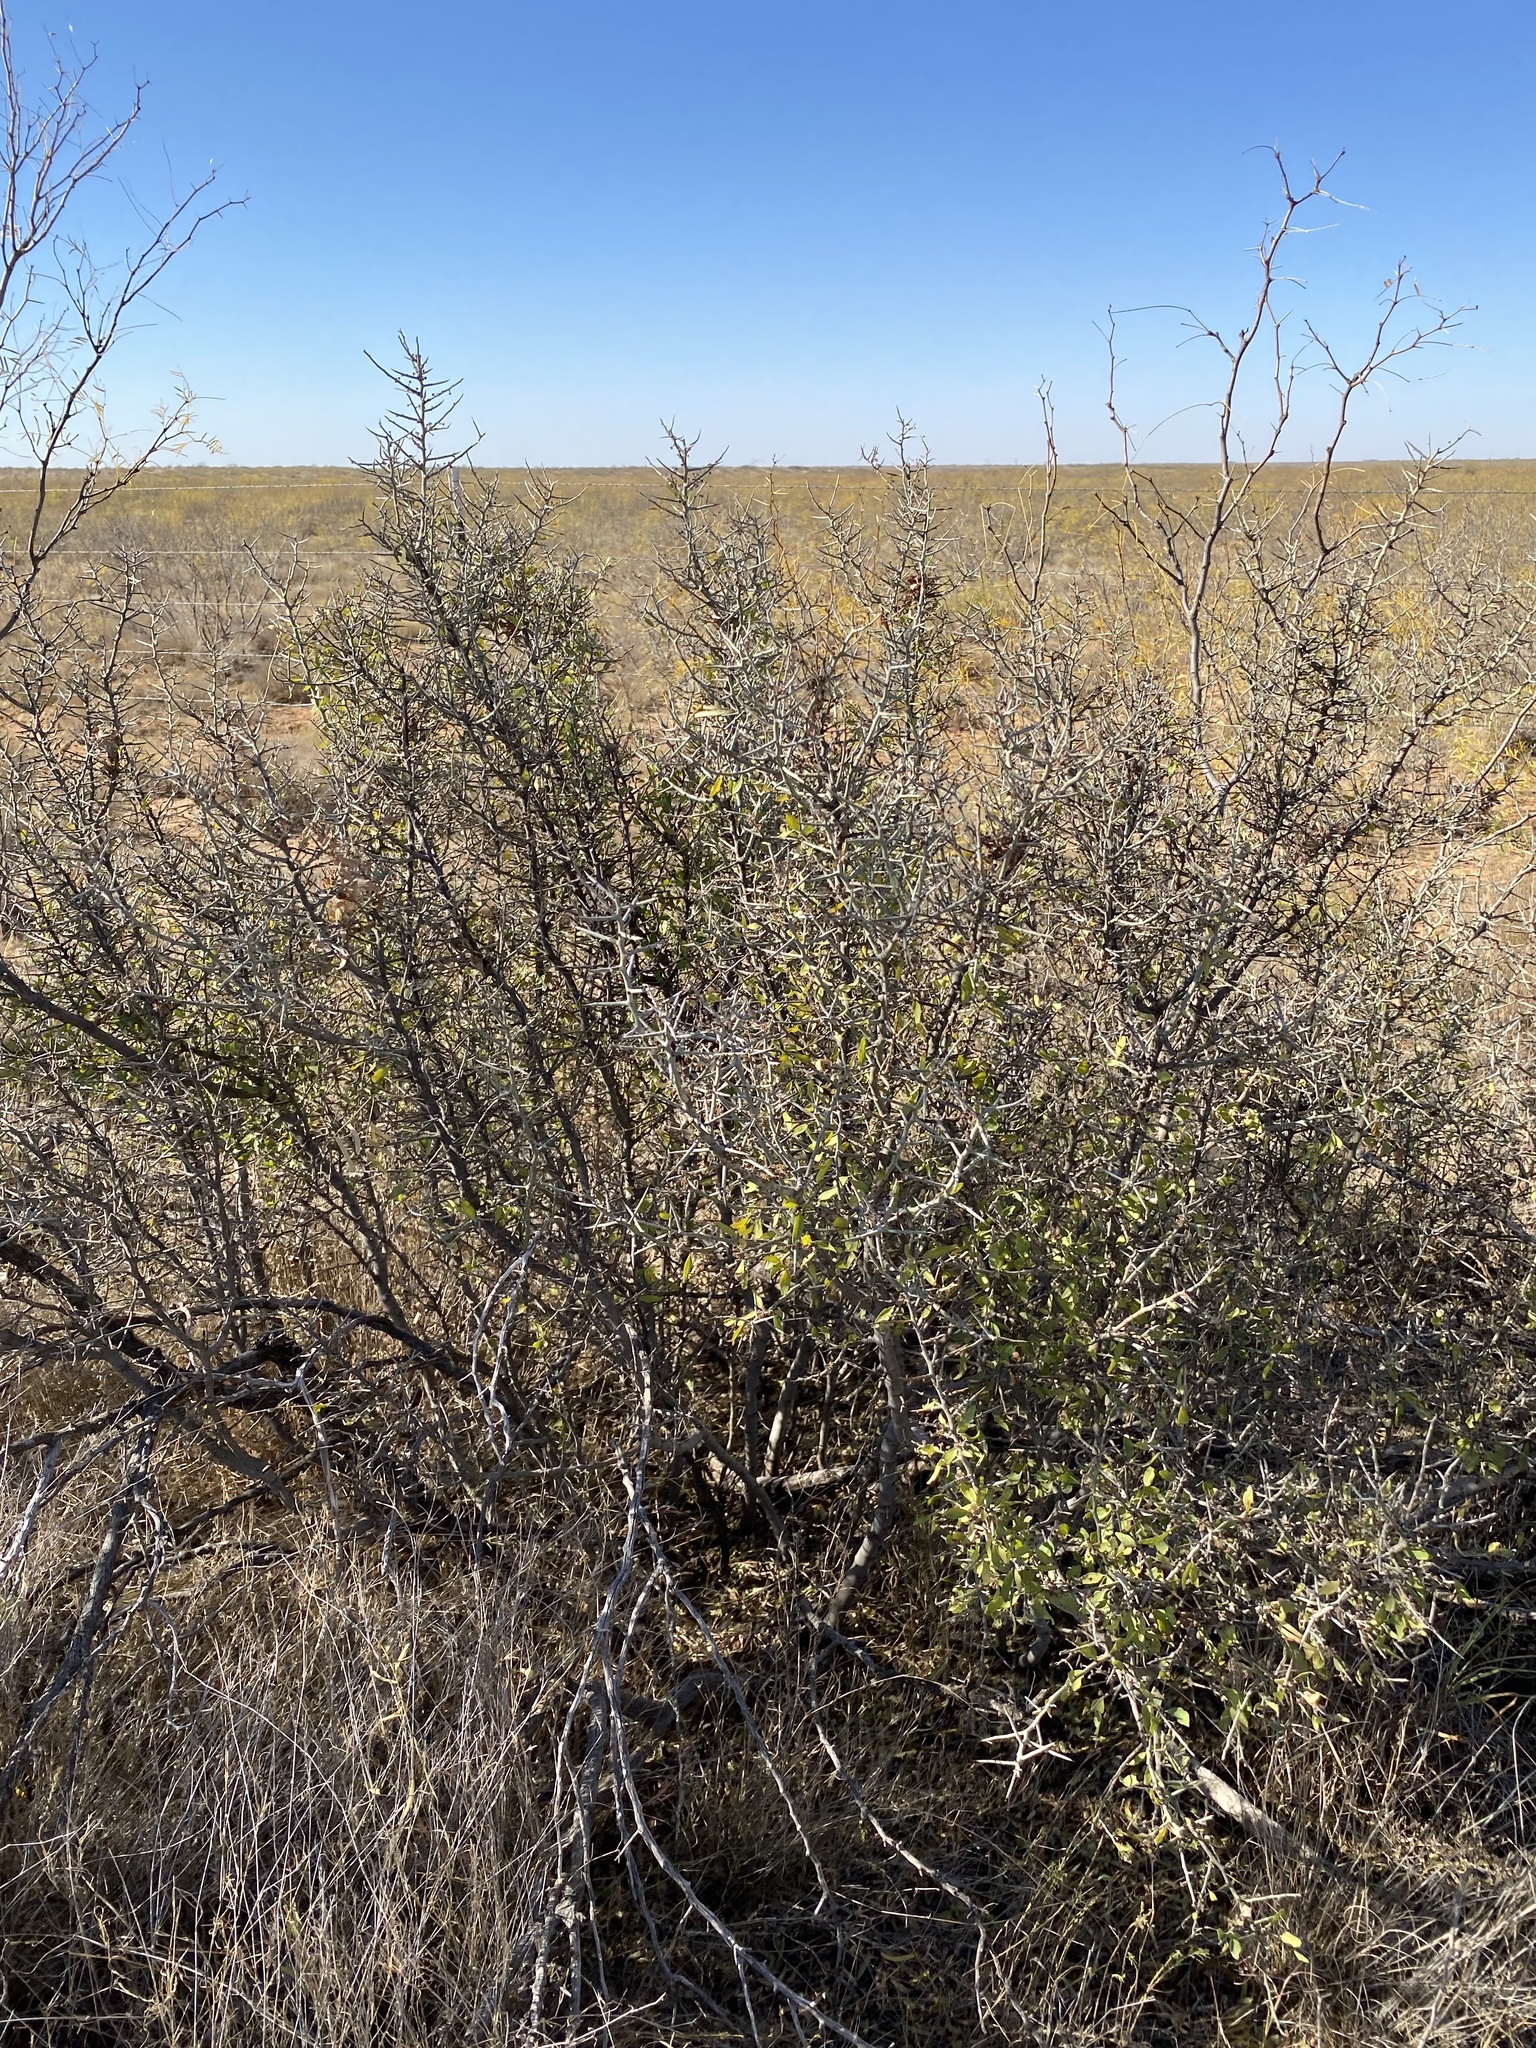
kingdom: Plantae
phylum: Tracheophyta
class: Magnoliopsida
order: Rosales
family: Rhamnaceae
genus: Sarcomphalus
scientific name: Sarcomphalus obtusifolius
